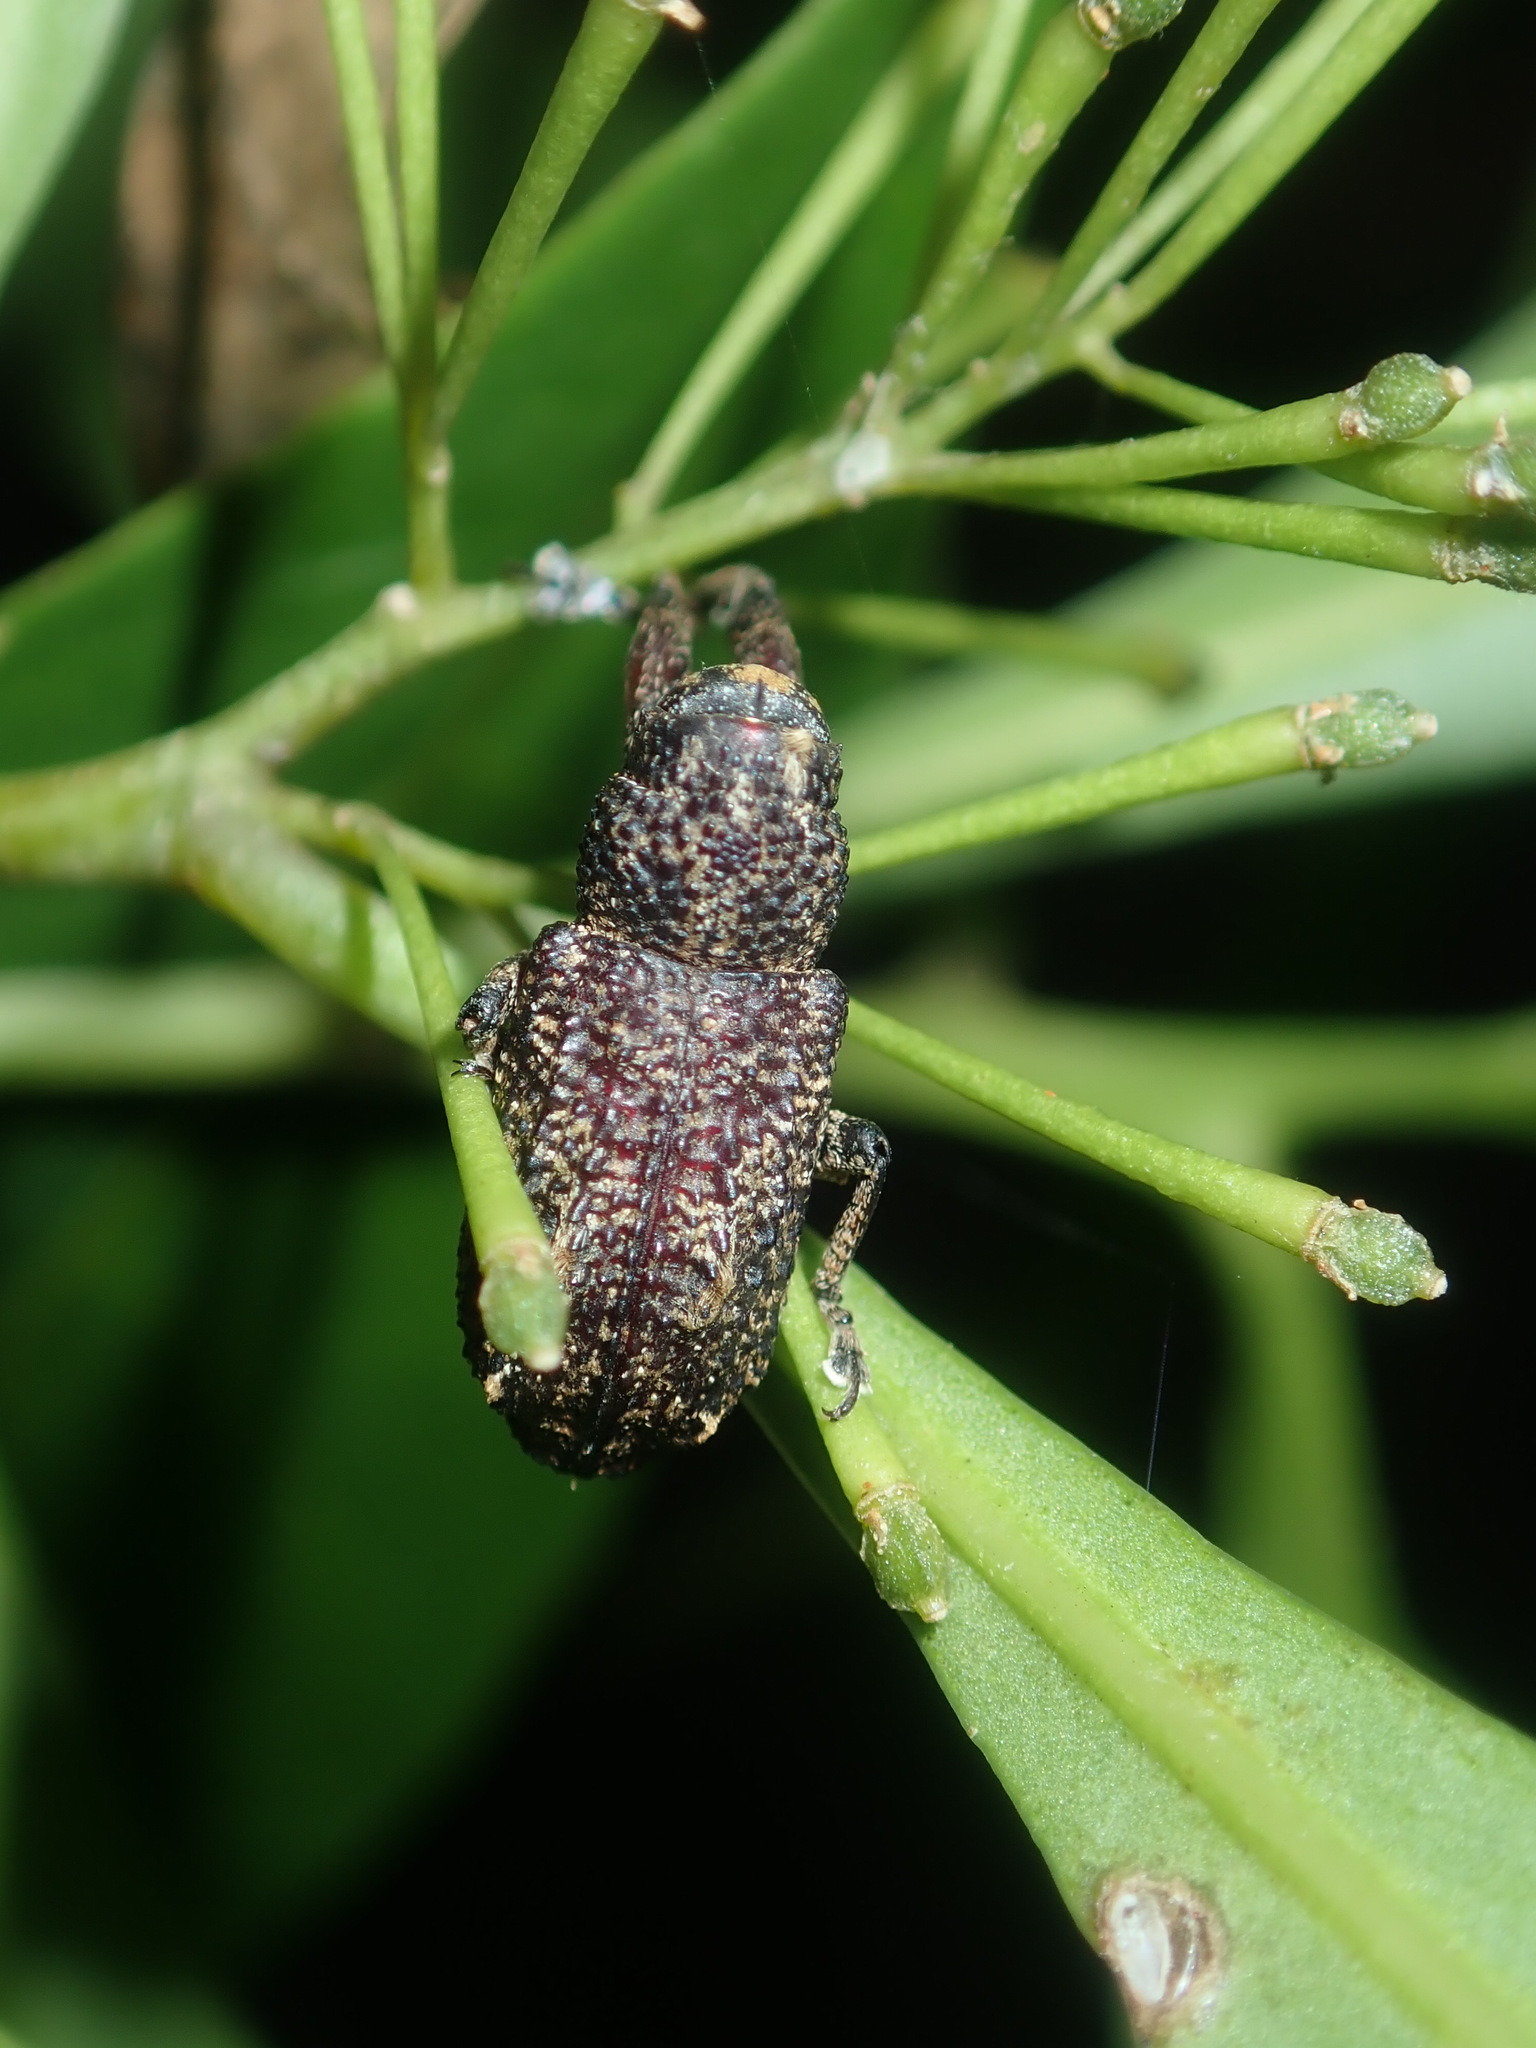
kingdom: Animalia
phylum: Arthropoda
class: Insecta
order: Coleoptera
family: Curculionidae
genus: Orthorhinus
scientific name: Orthorhinus cylindrirostris
